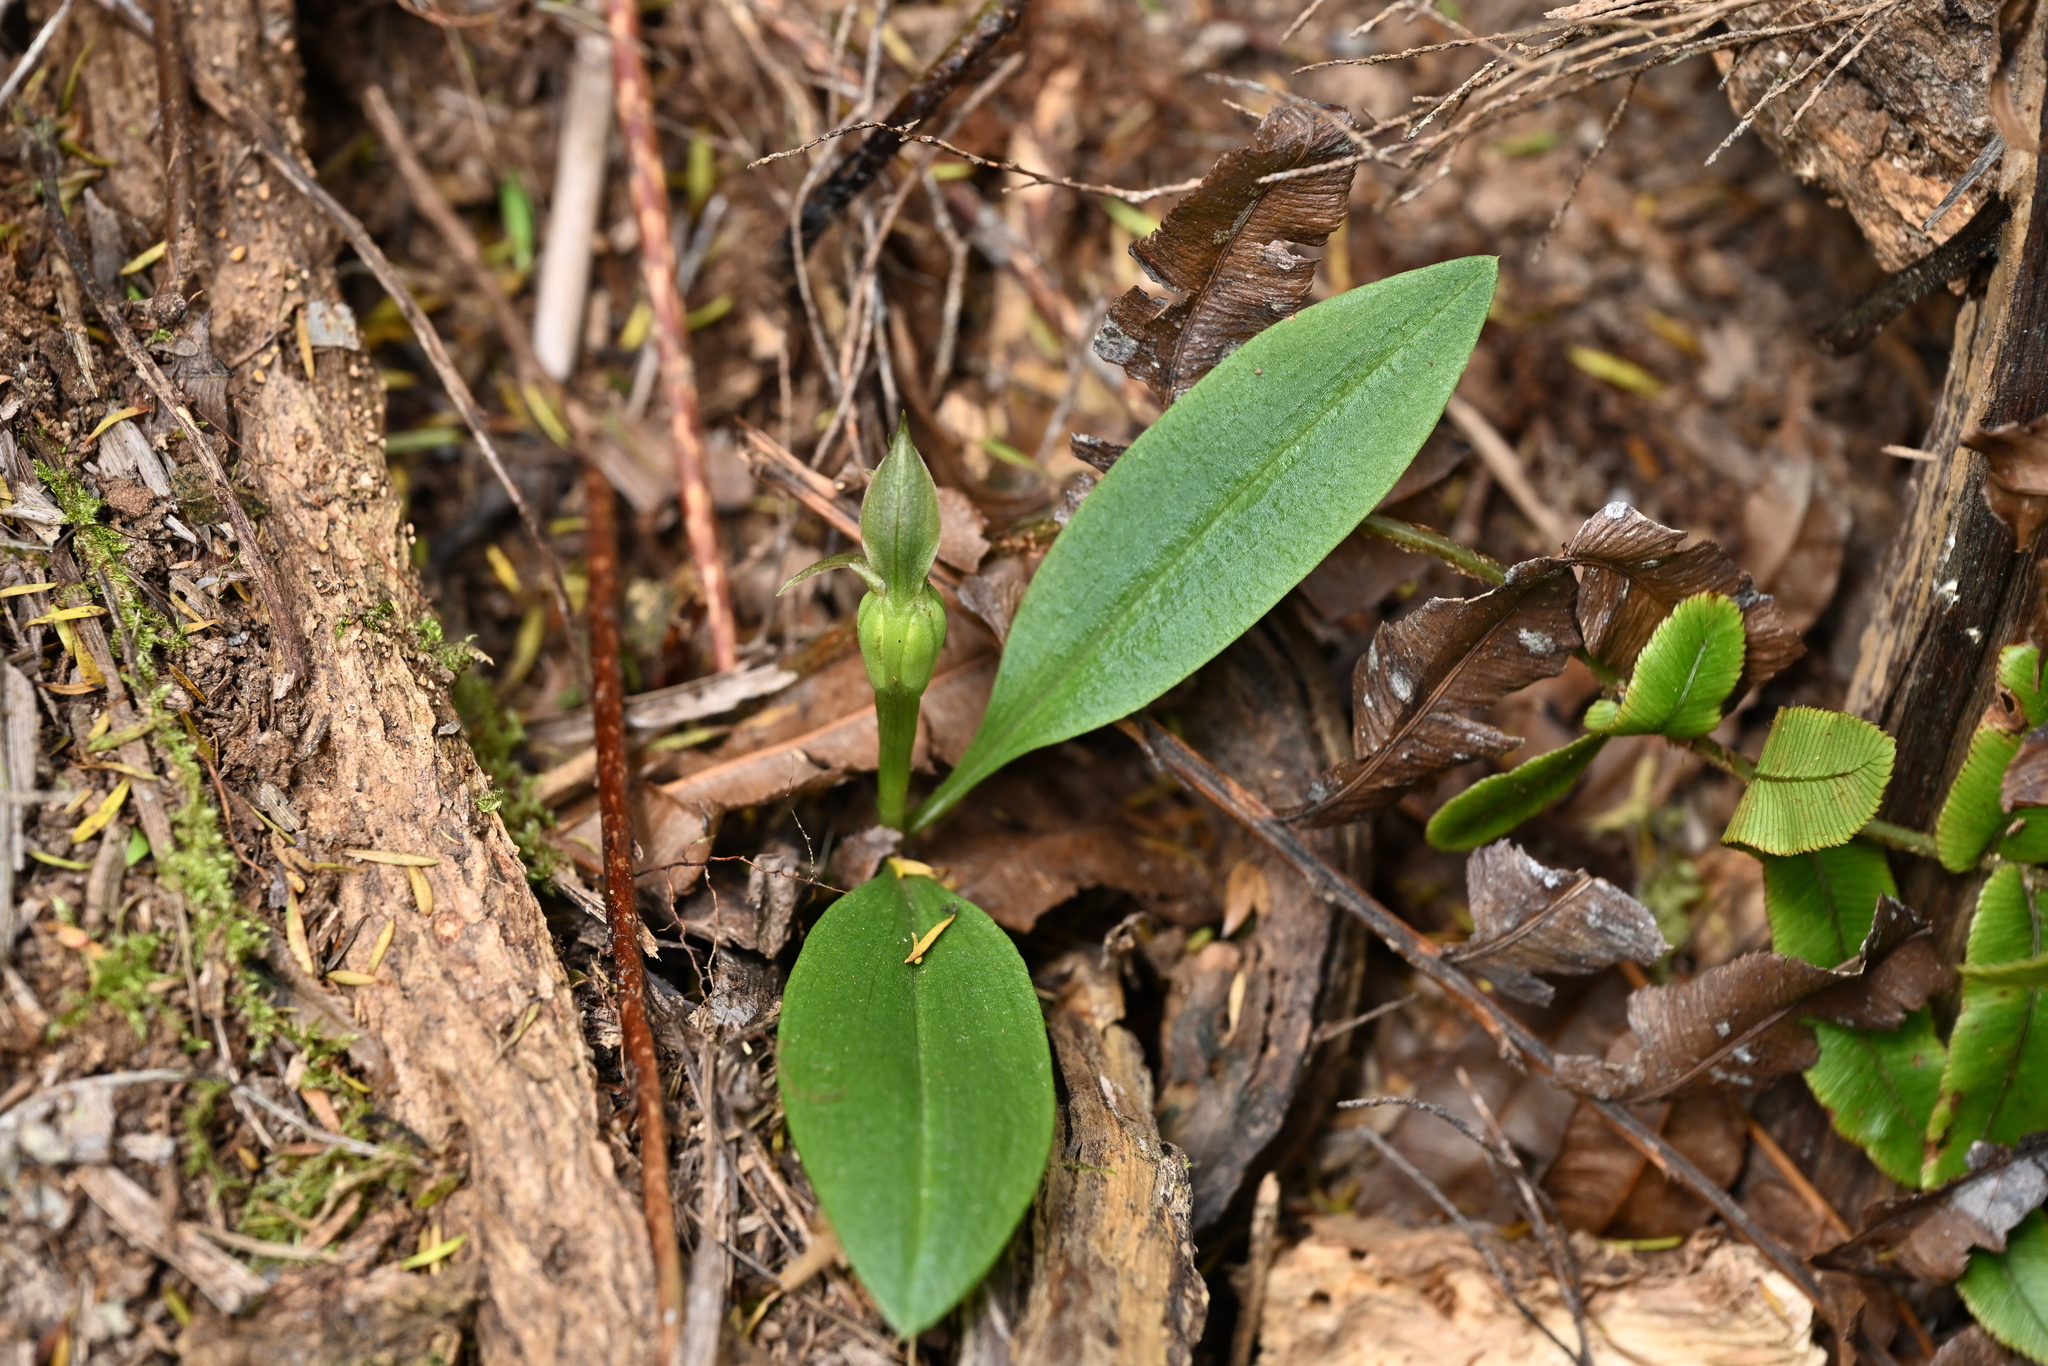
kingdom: Plantae
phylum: Tracheophyta
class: Liliopsida
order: Asparagales
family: Orchidaceae
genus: Chiloglottis
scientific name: Chiloglottis cornuta
